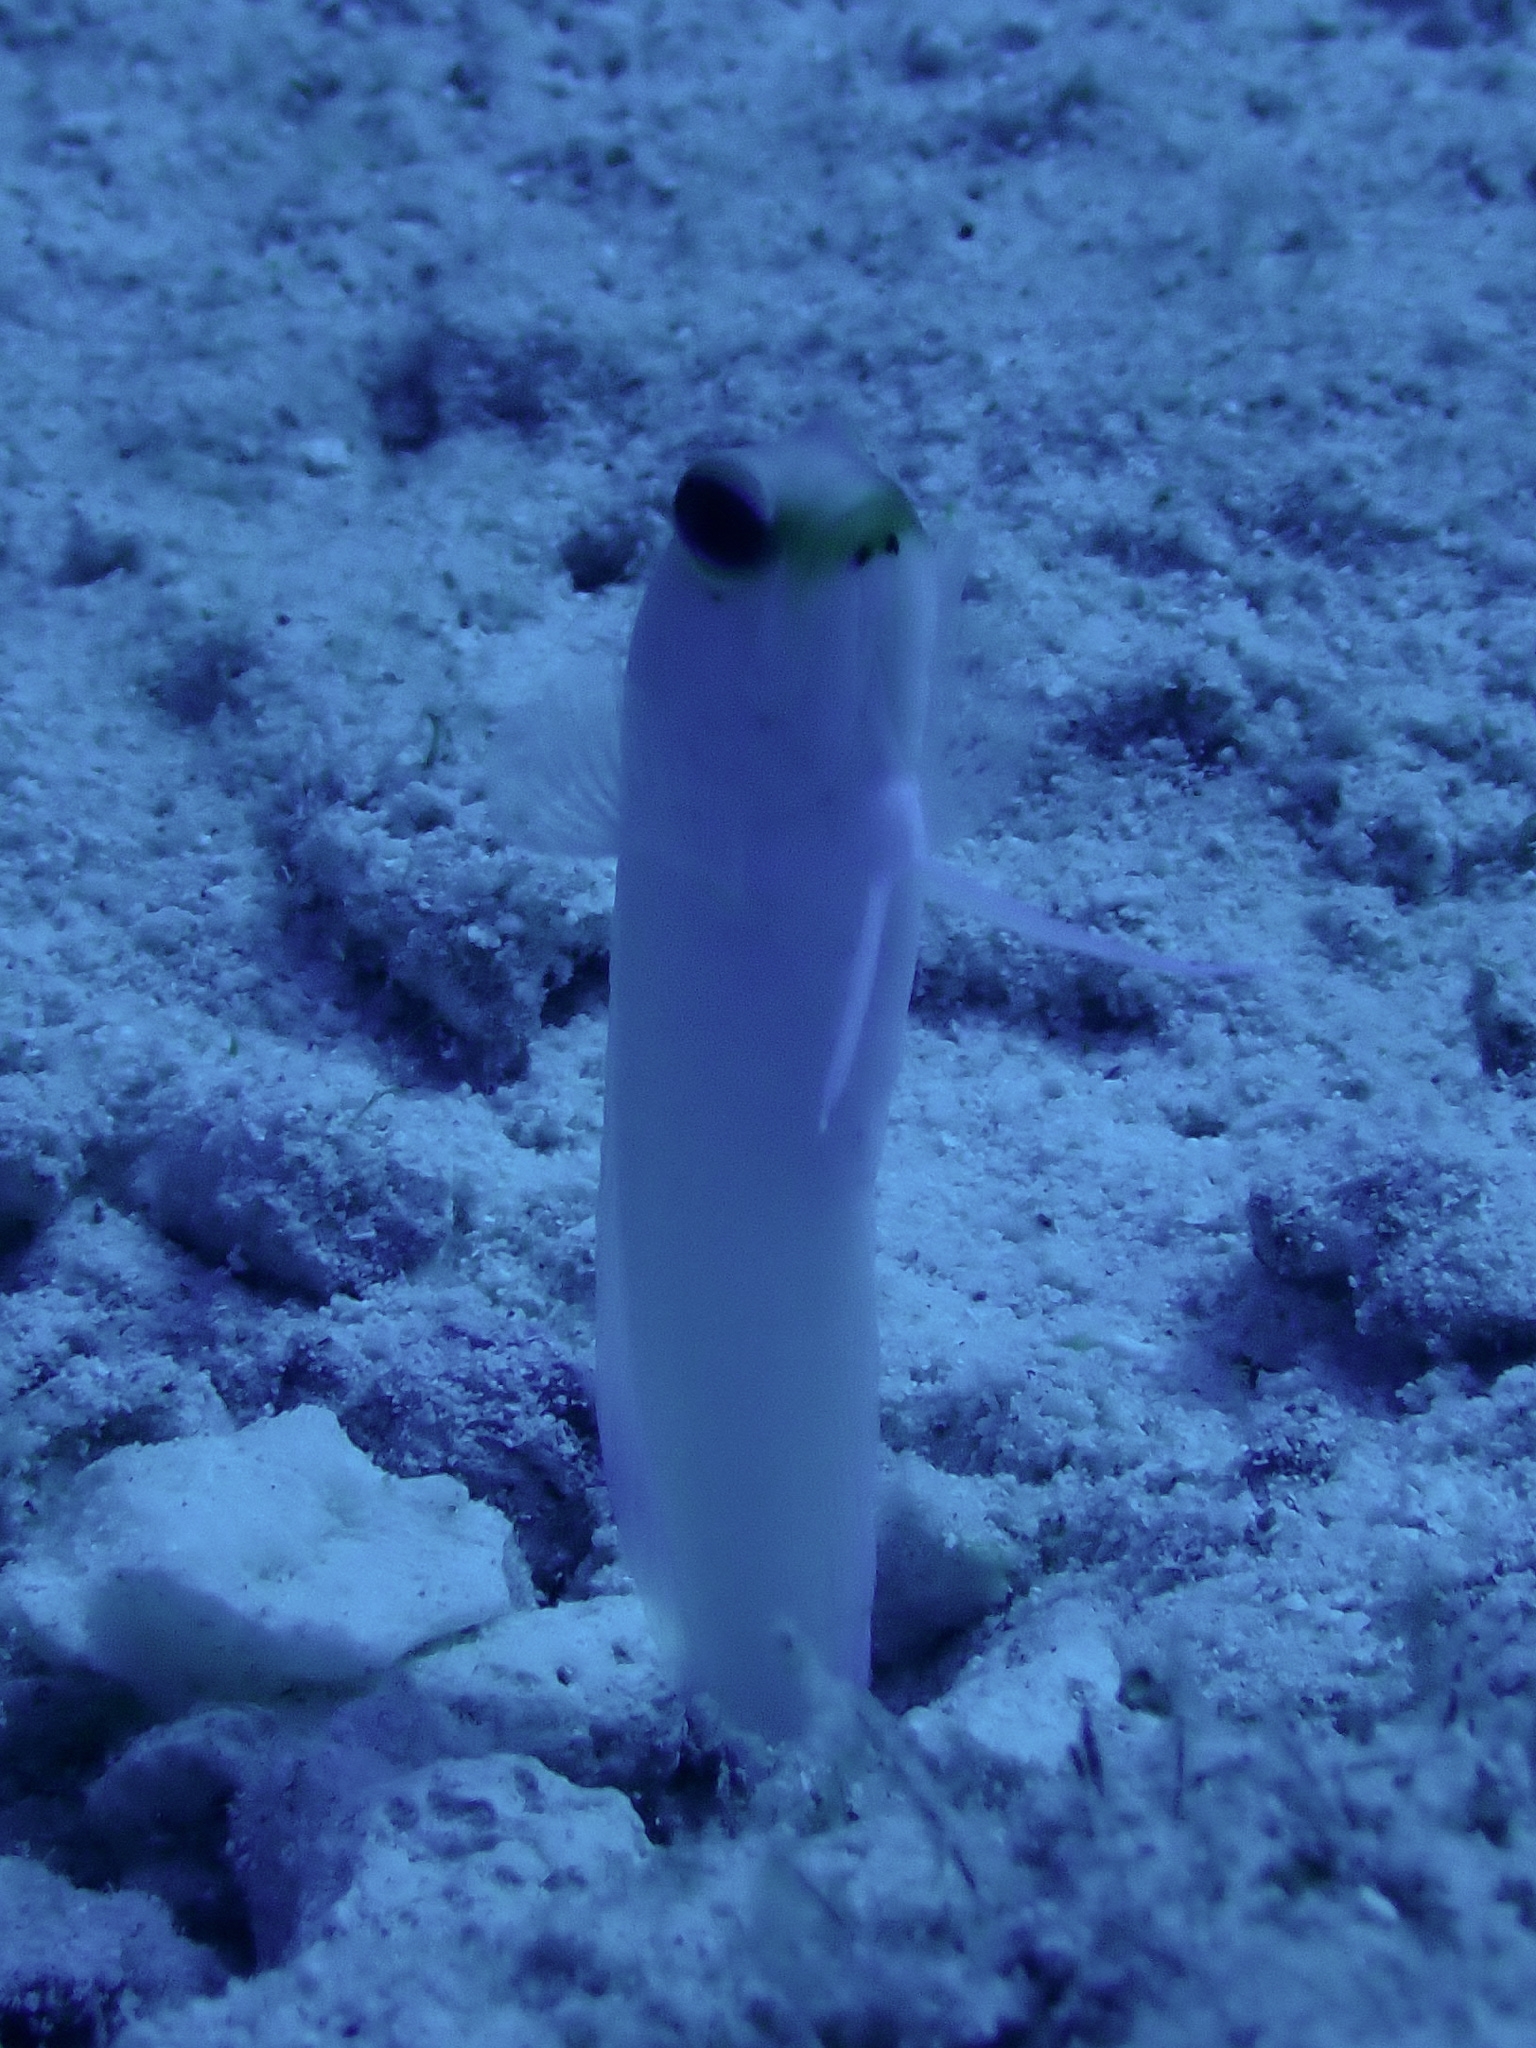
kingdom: Animalia
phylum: Chordata
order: Perciformes
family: Opistognathidae
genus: Opistognathus
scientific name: Opistognathus aurifrons
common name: Yellowhead jawfish
